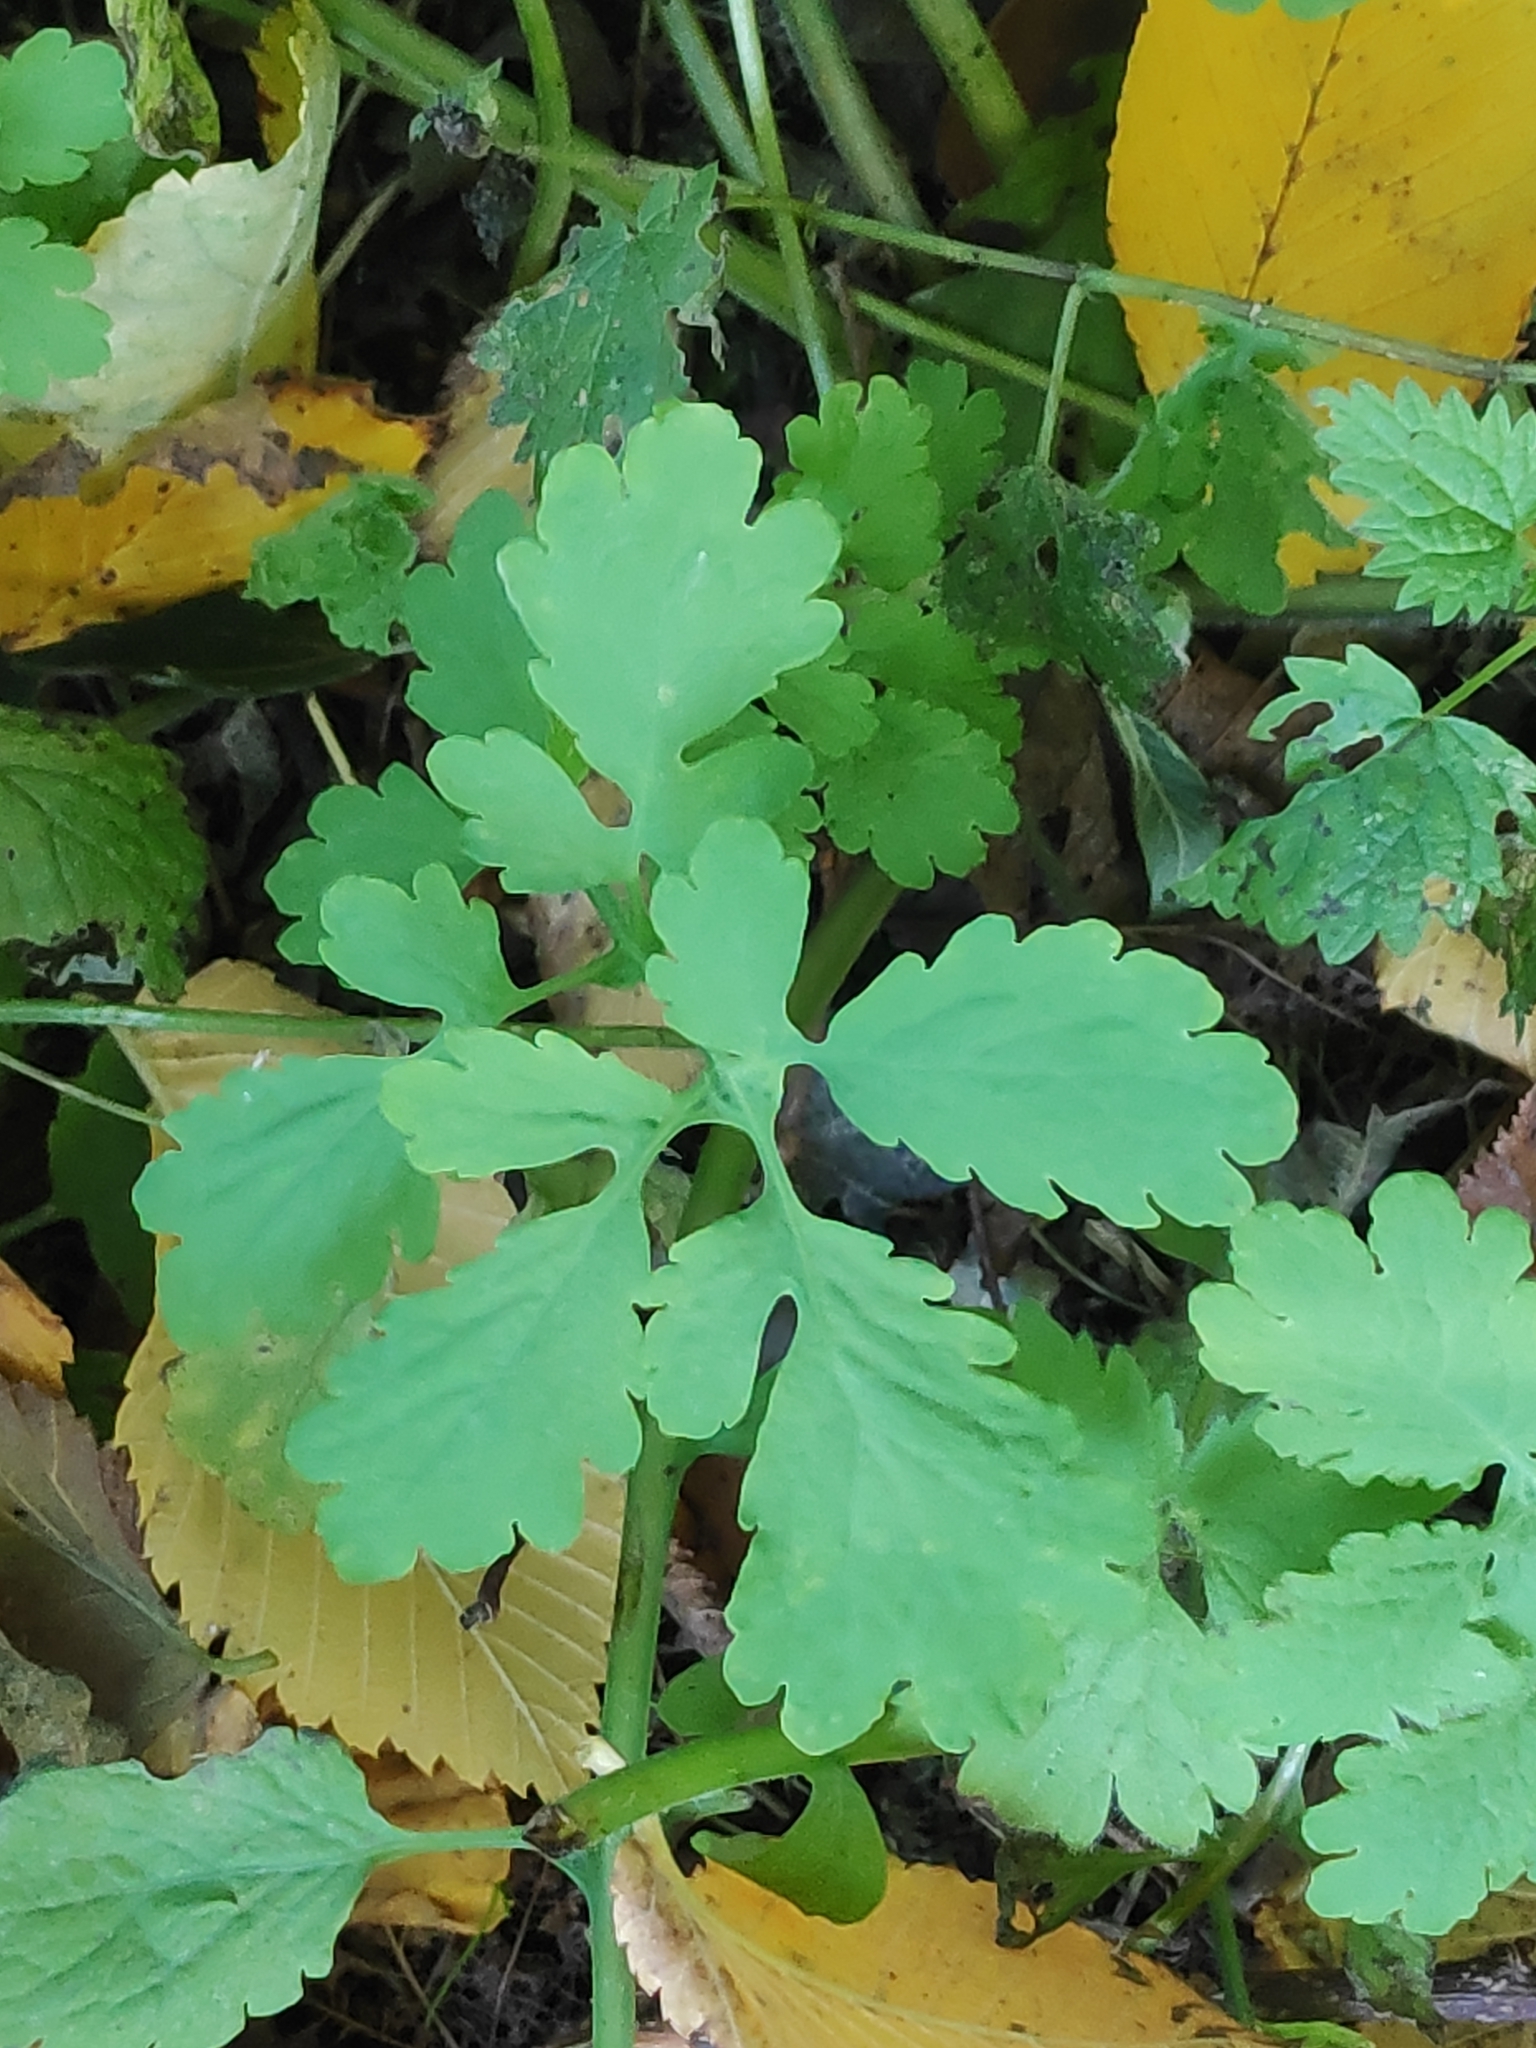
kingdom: Plantae
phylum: Tracheophyta
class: Magnoliopsida
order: Ranunculales
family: Papaveraceae
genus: Chelidonium
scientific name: Chelidonium majus
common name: Greater celandine
